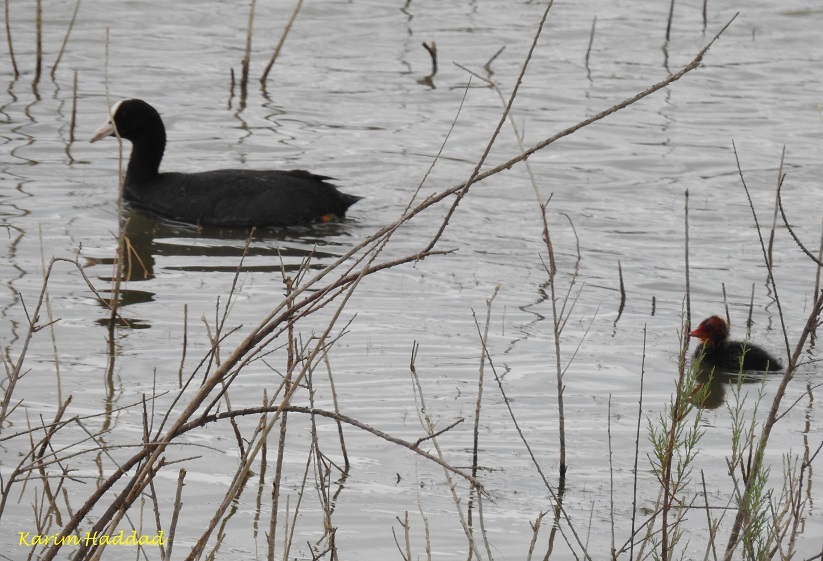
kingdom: Animalia
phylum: Chordata
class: Aves
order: Gruiformes
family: Rallidae
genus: Fulica
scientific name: Fulica atra
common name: Eurasian coot
